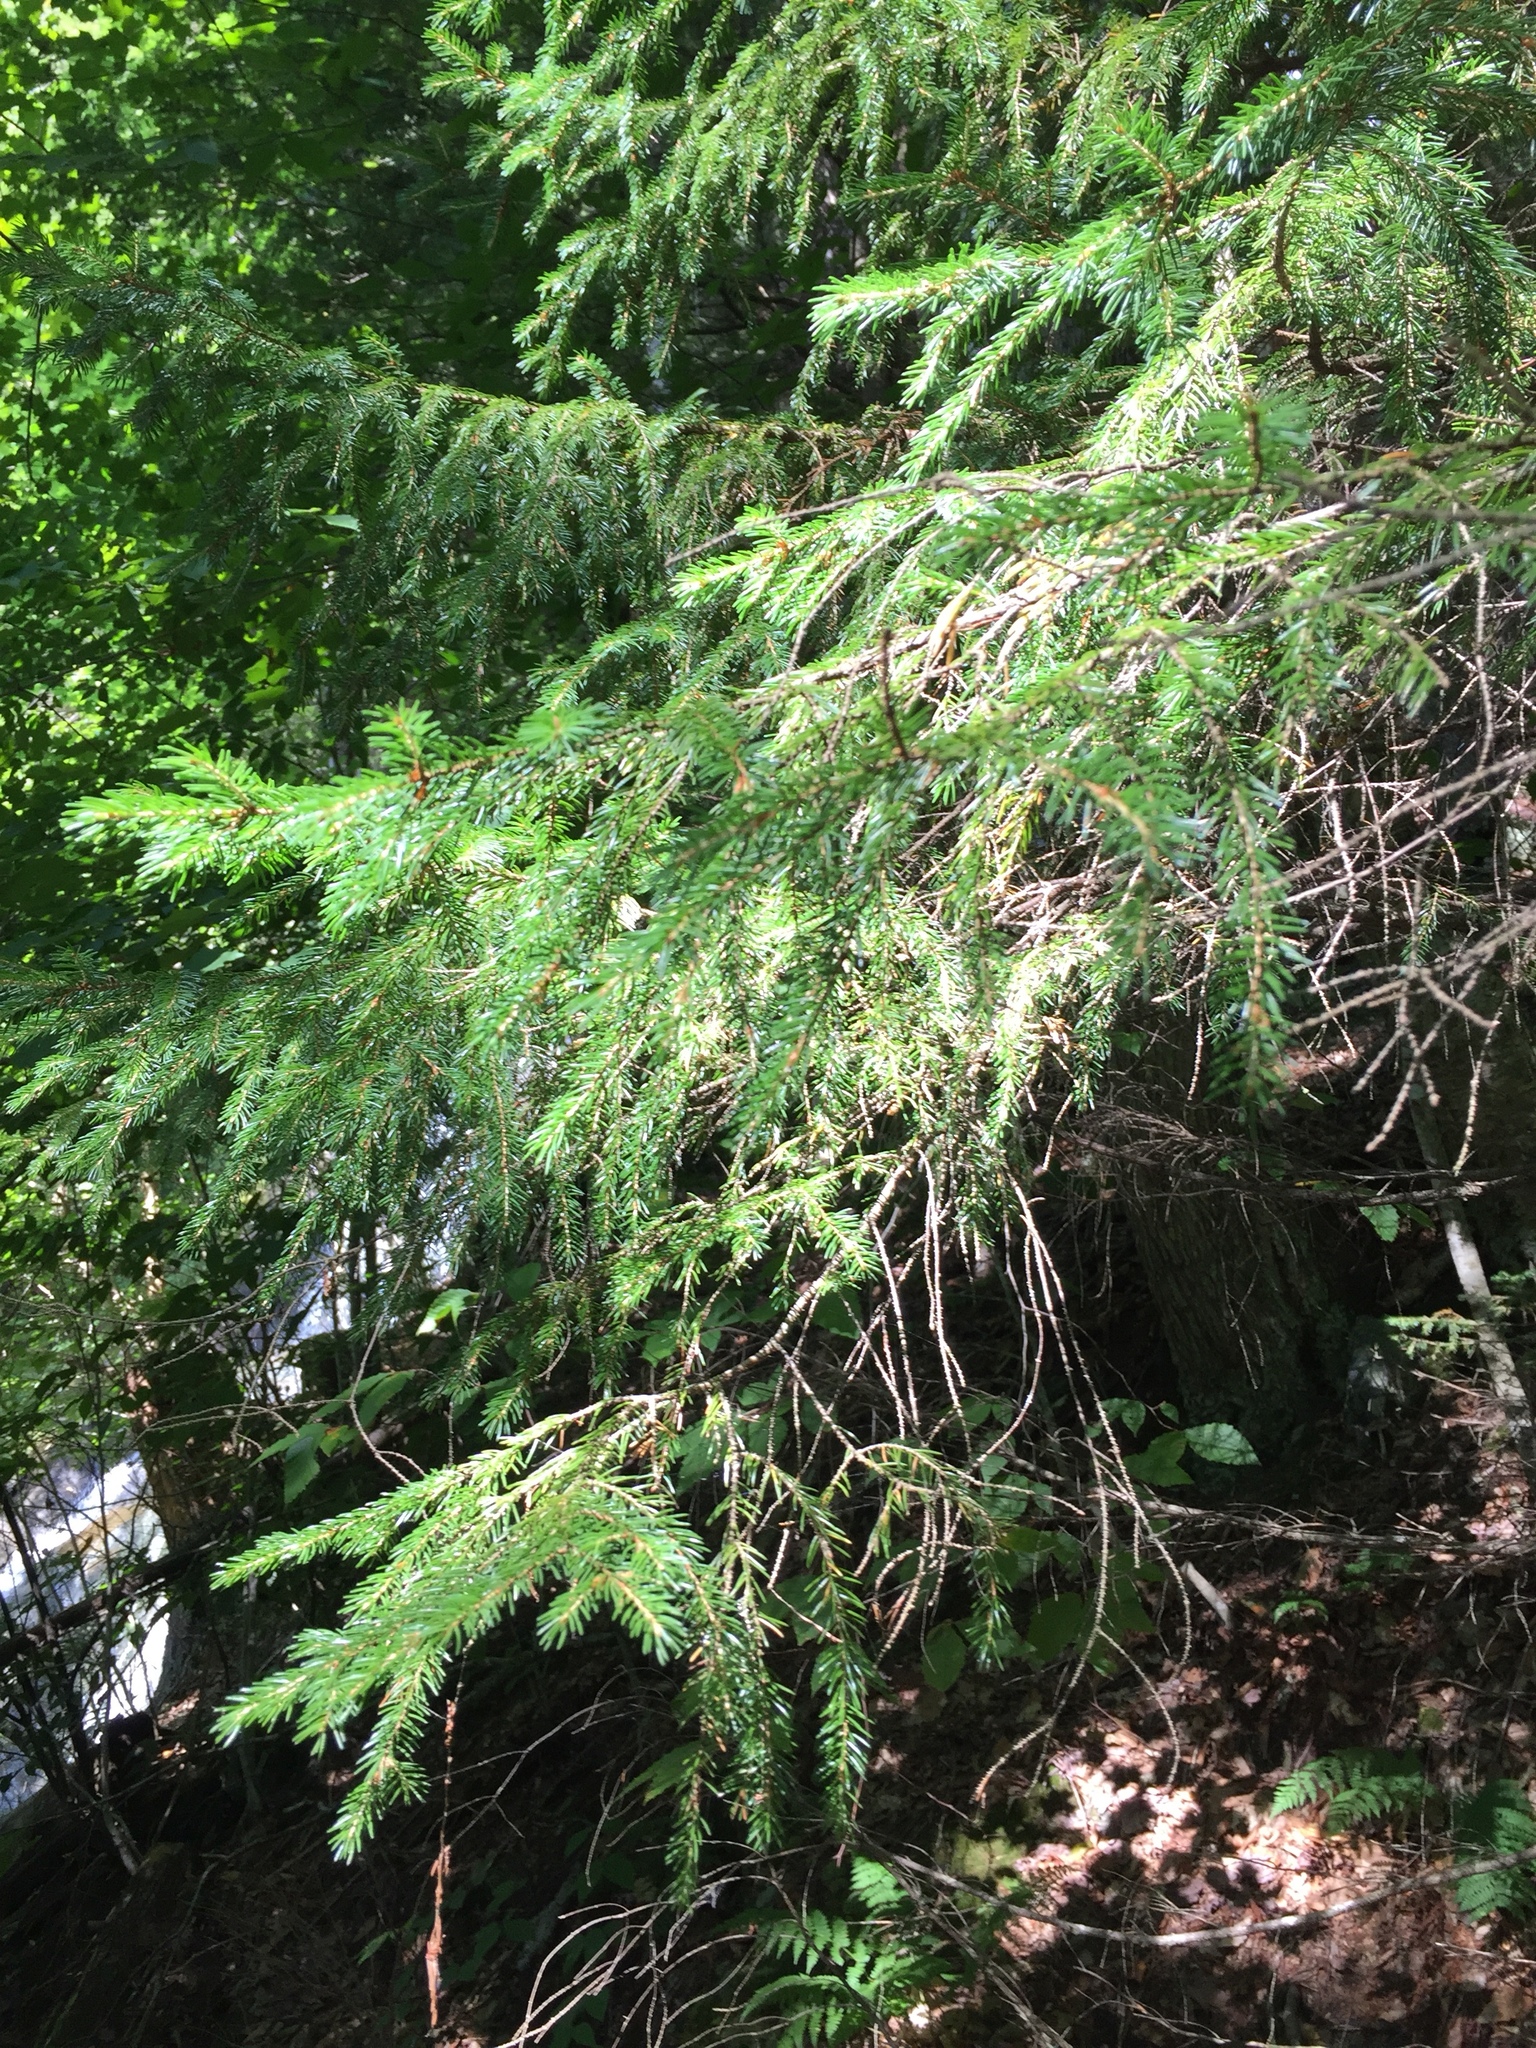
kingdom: Plantae
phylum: Tracheophyta
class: Pinopsida
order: Pinales
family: Pinaceae
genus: Picea
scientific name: Picea rubens
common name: Red spruce
